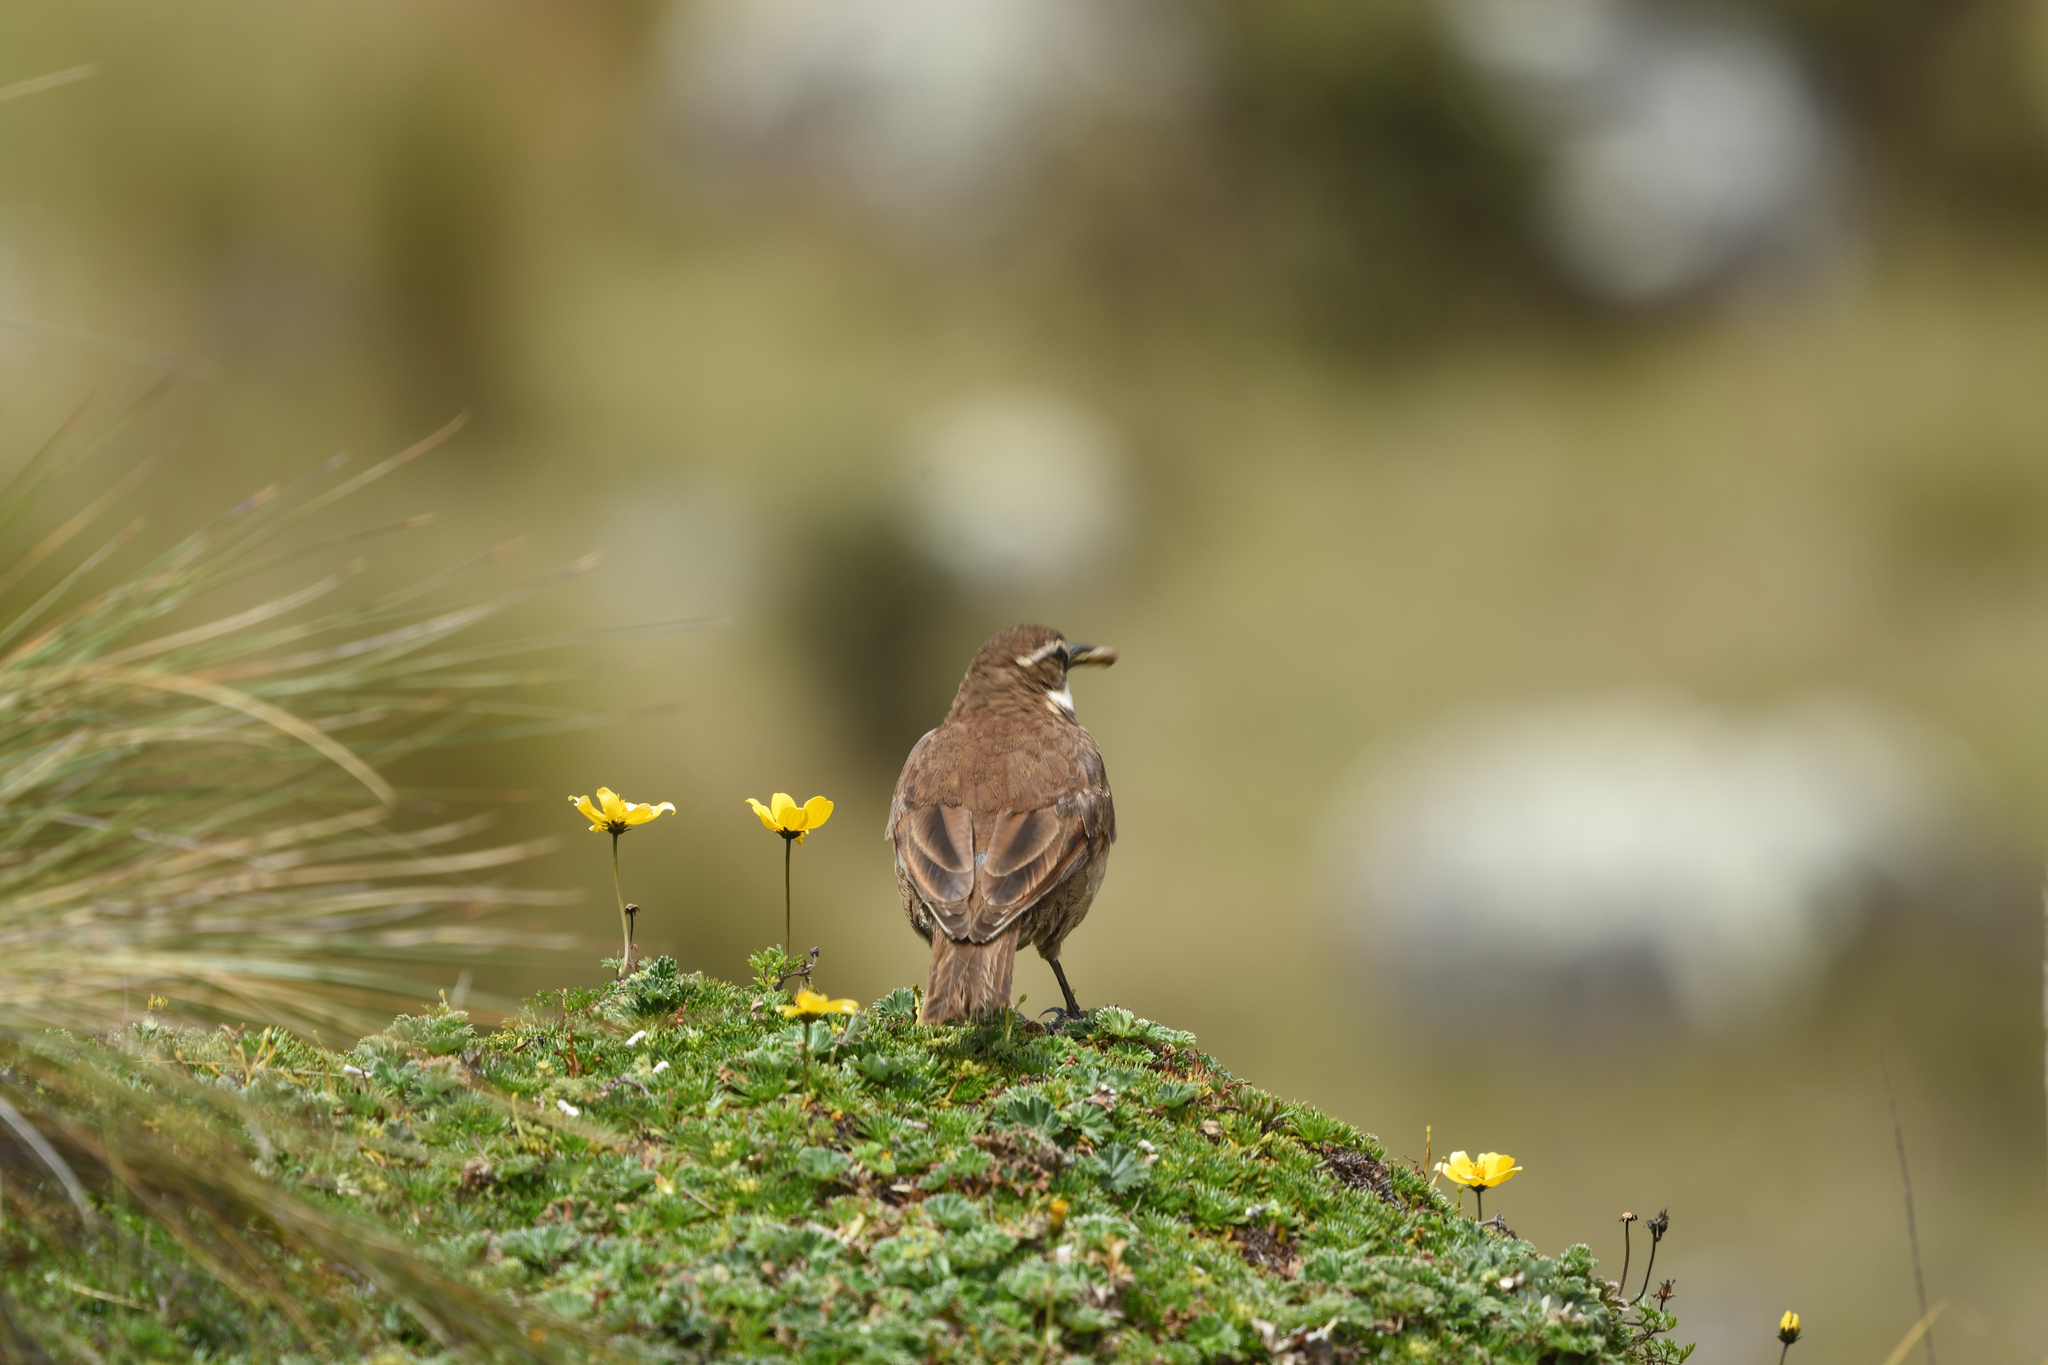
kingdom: Animalia
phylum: Chordata
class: Aves
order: Passeriformes
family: Furnariidae
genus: Cinclodes
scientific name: Cinclodes excelsior
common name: Stout-billed cinclodes
